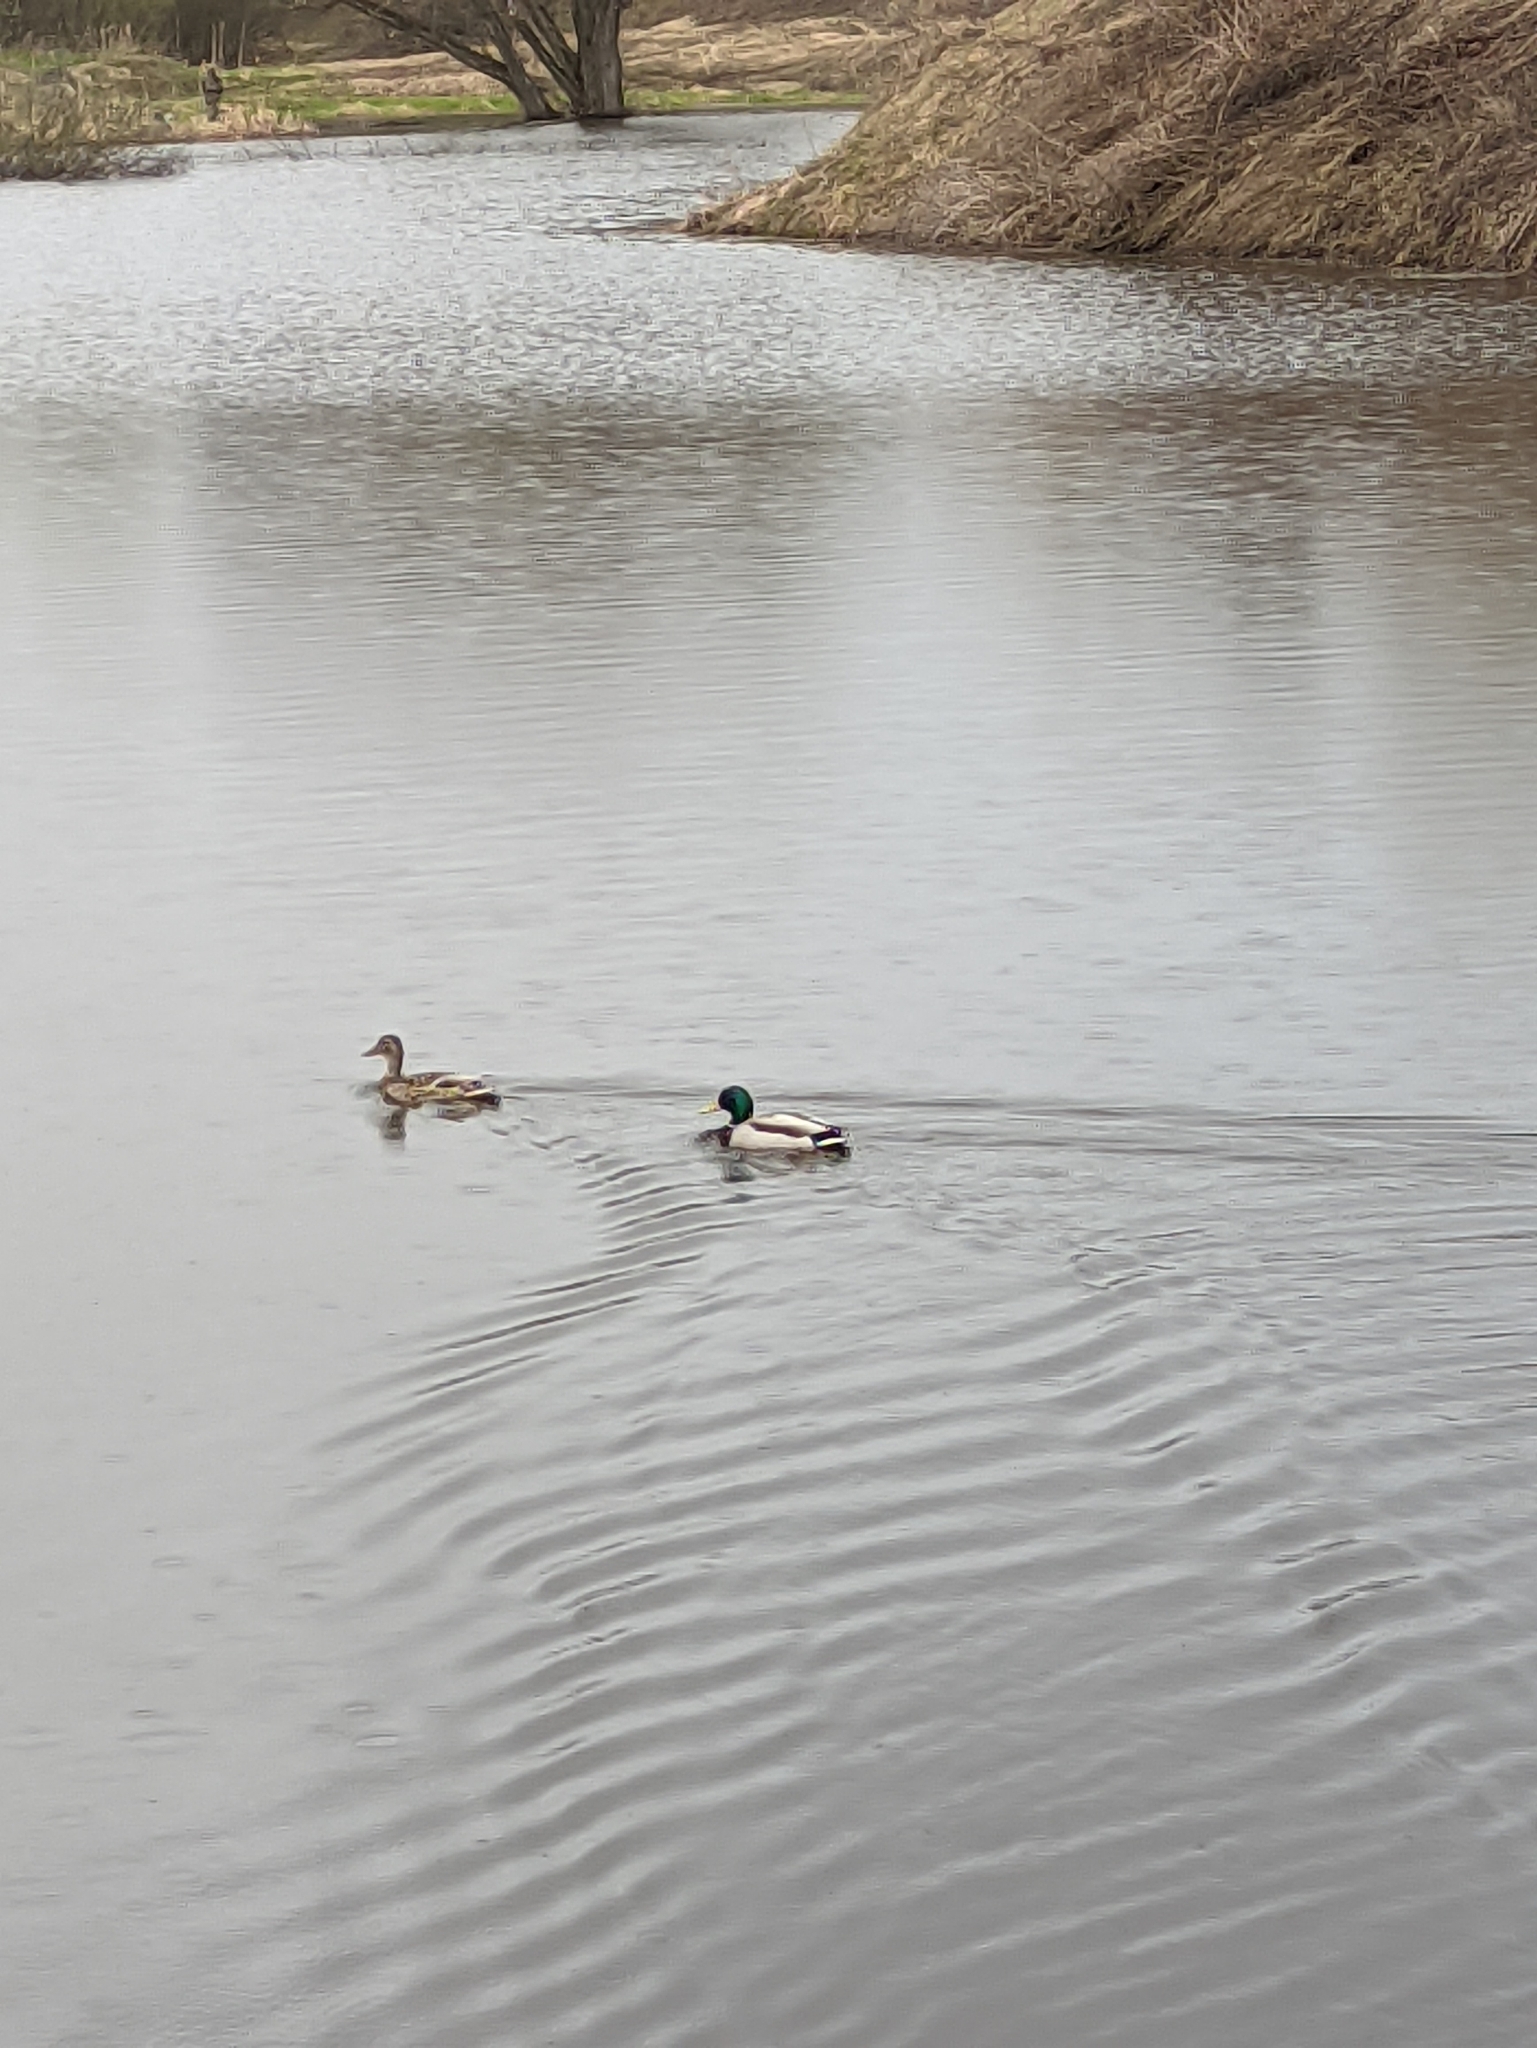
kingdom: Animalia
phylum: Chordata
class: Aves
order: Anseriformes
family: Anatidae
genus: Anas
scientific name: Anas platyrhynchos
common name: Mallard
